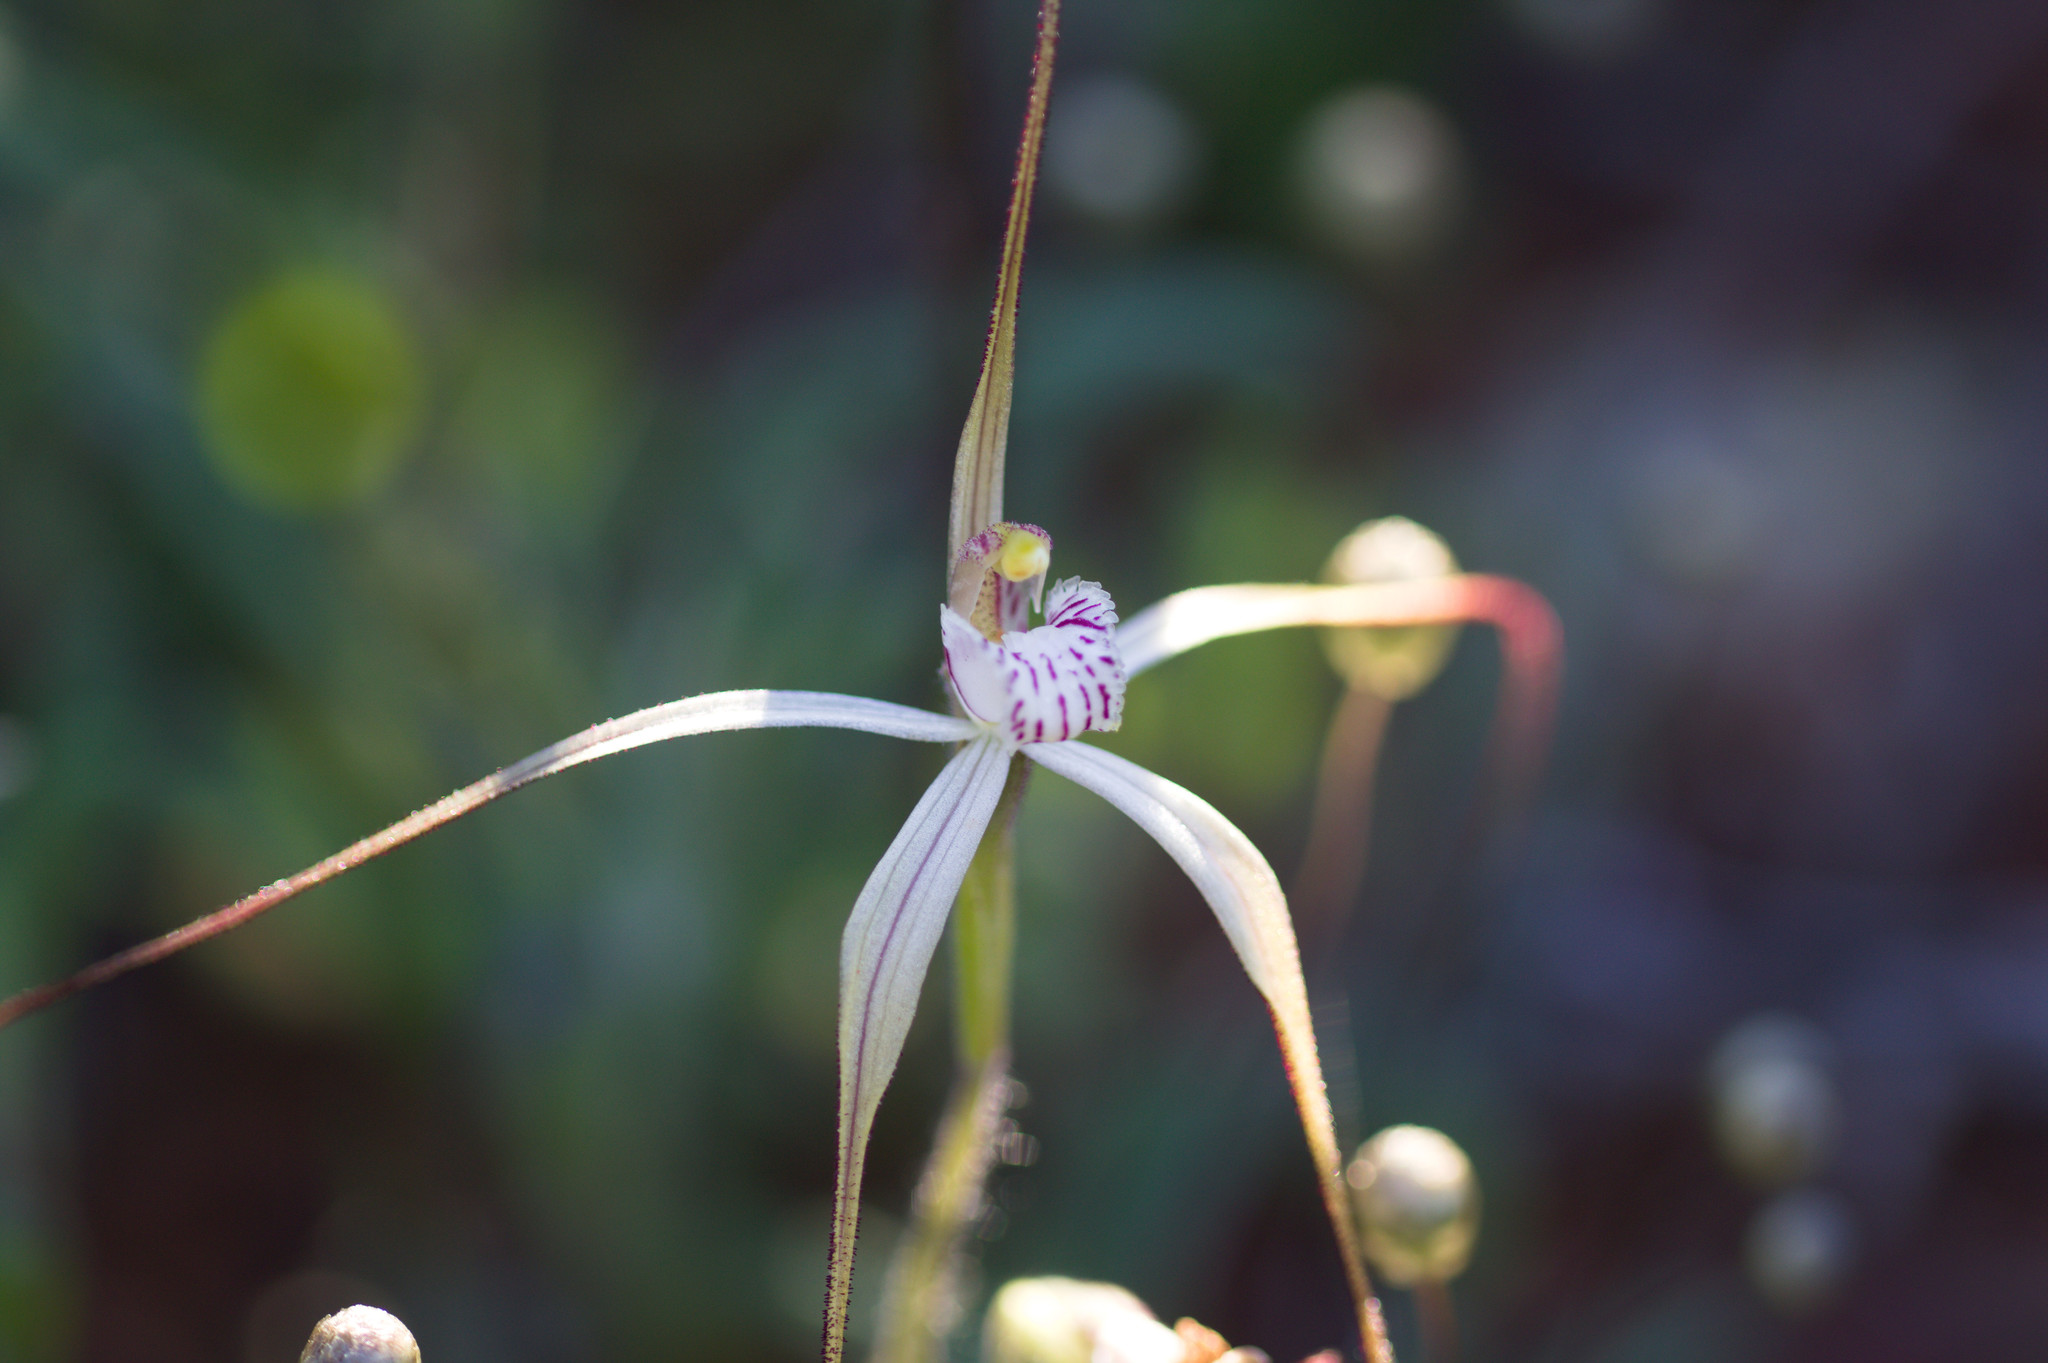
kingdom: Plantae
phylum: Tracheophyta
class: Liliopsida
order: Asparagales
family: Orchidaceae
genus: Caladenia
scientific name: Caladenia varians
